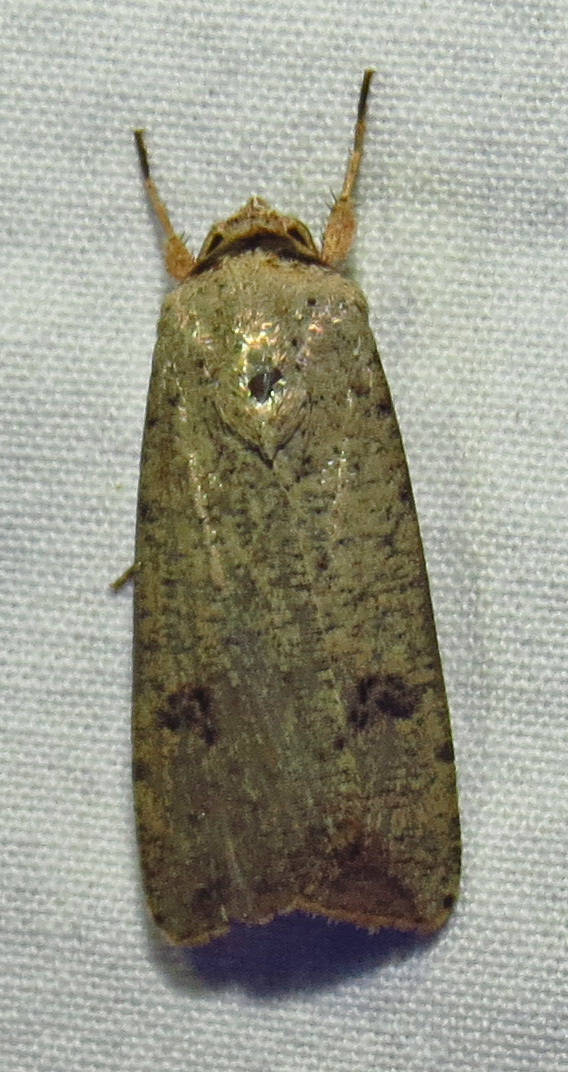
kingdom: Animalia
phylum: Arthropoda
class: Insecta
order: Lepidoptera
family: Noctuidae
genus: Anicla
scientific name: Anicla infecta
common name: Green cutworm
